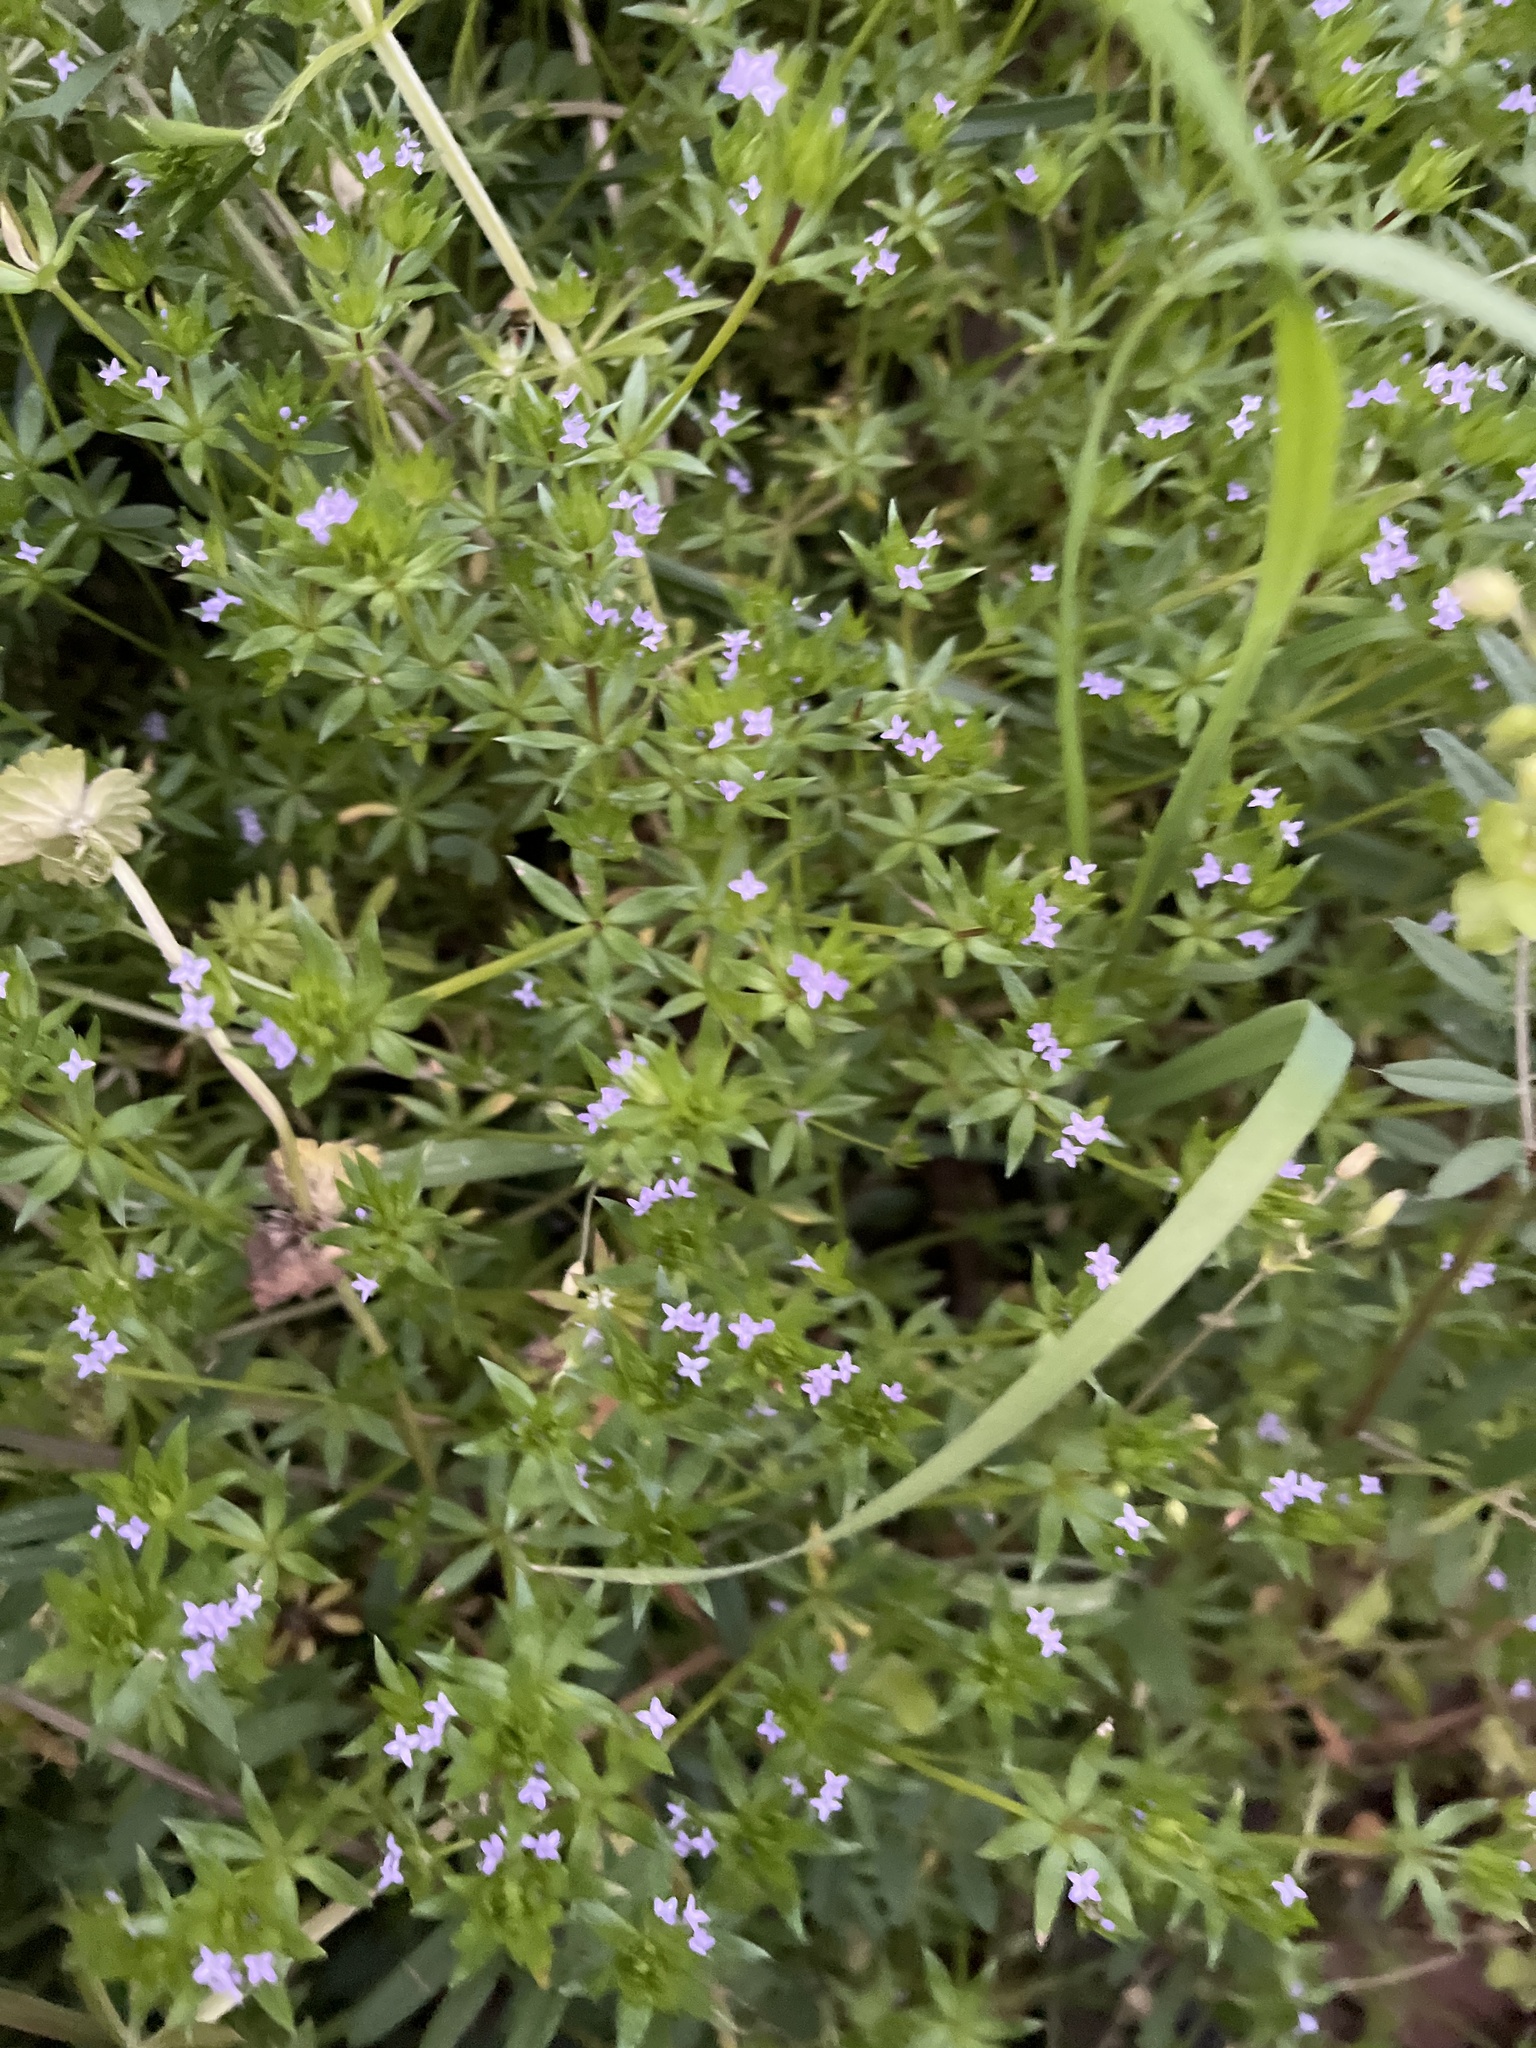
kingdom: Plantae
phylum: Tracheophyta
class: Magnoliopsida
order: Gentianales
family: Rubiaceae
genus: Sherardia
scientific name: Sherardia arvensis
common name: Field madder
